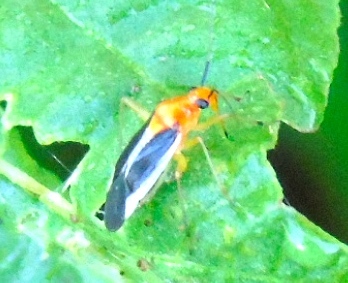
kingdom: Animalia
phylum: Arthropoda
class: Insecta
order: Hemiptera
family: Miridae
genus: Ganocapsus
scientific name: Ganocapsus filiformis
